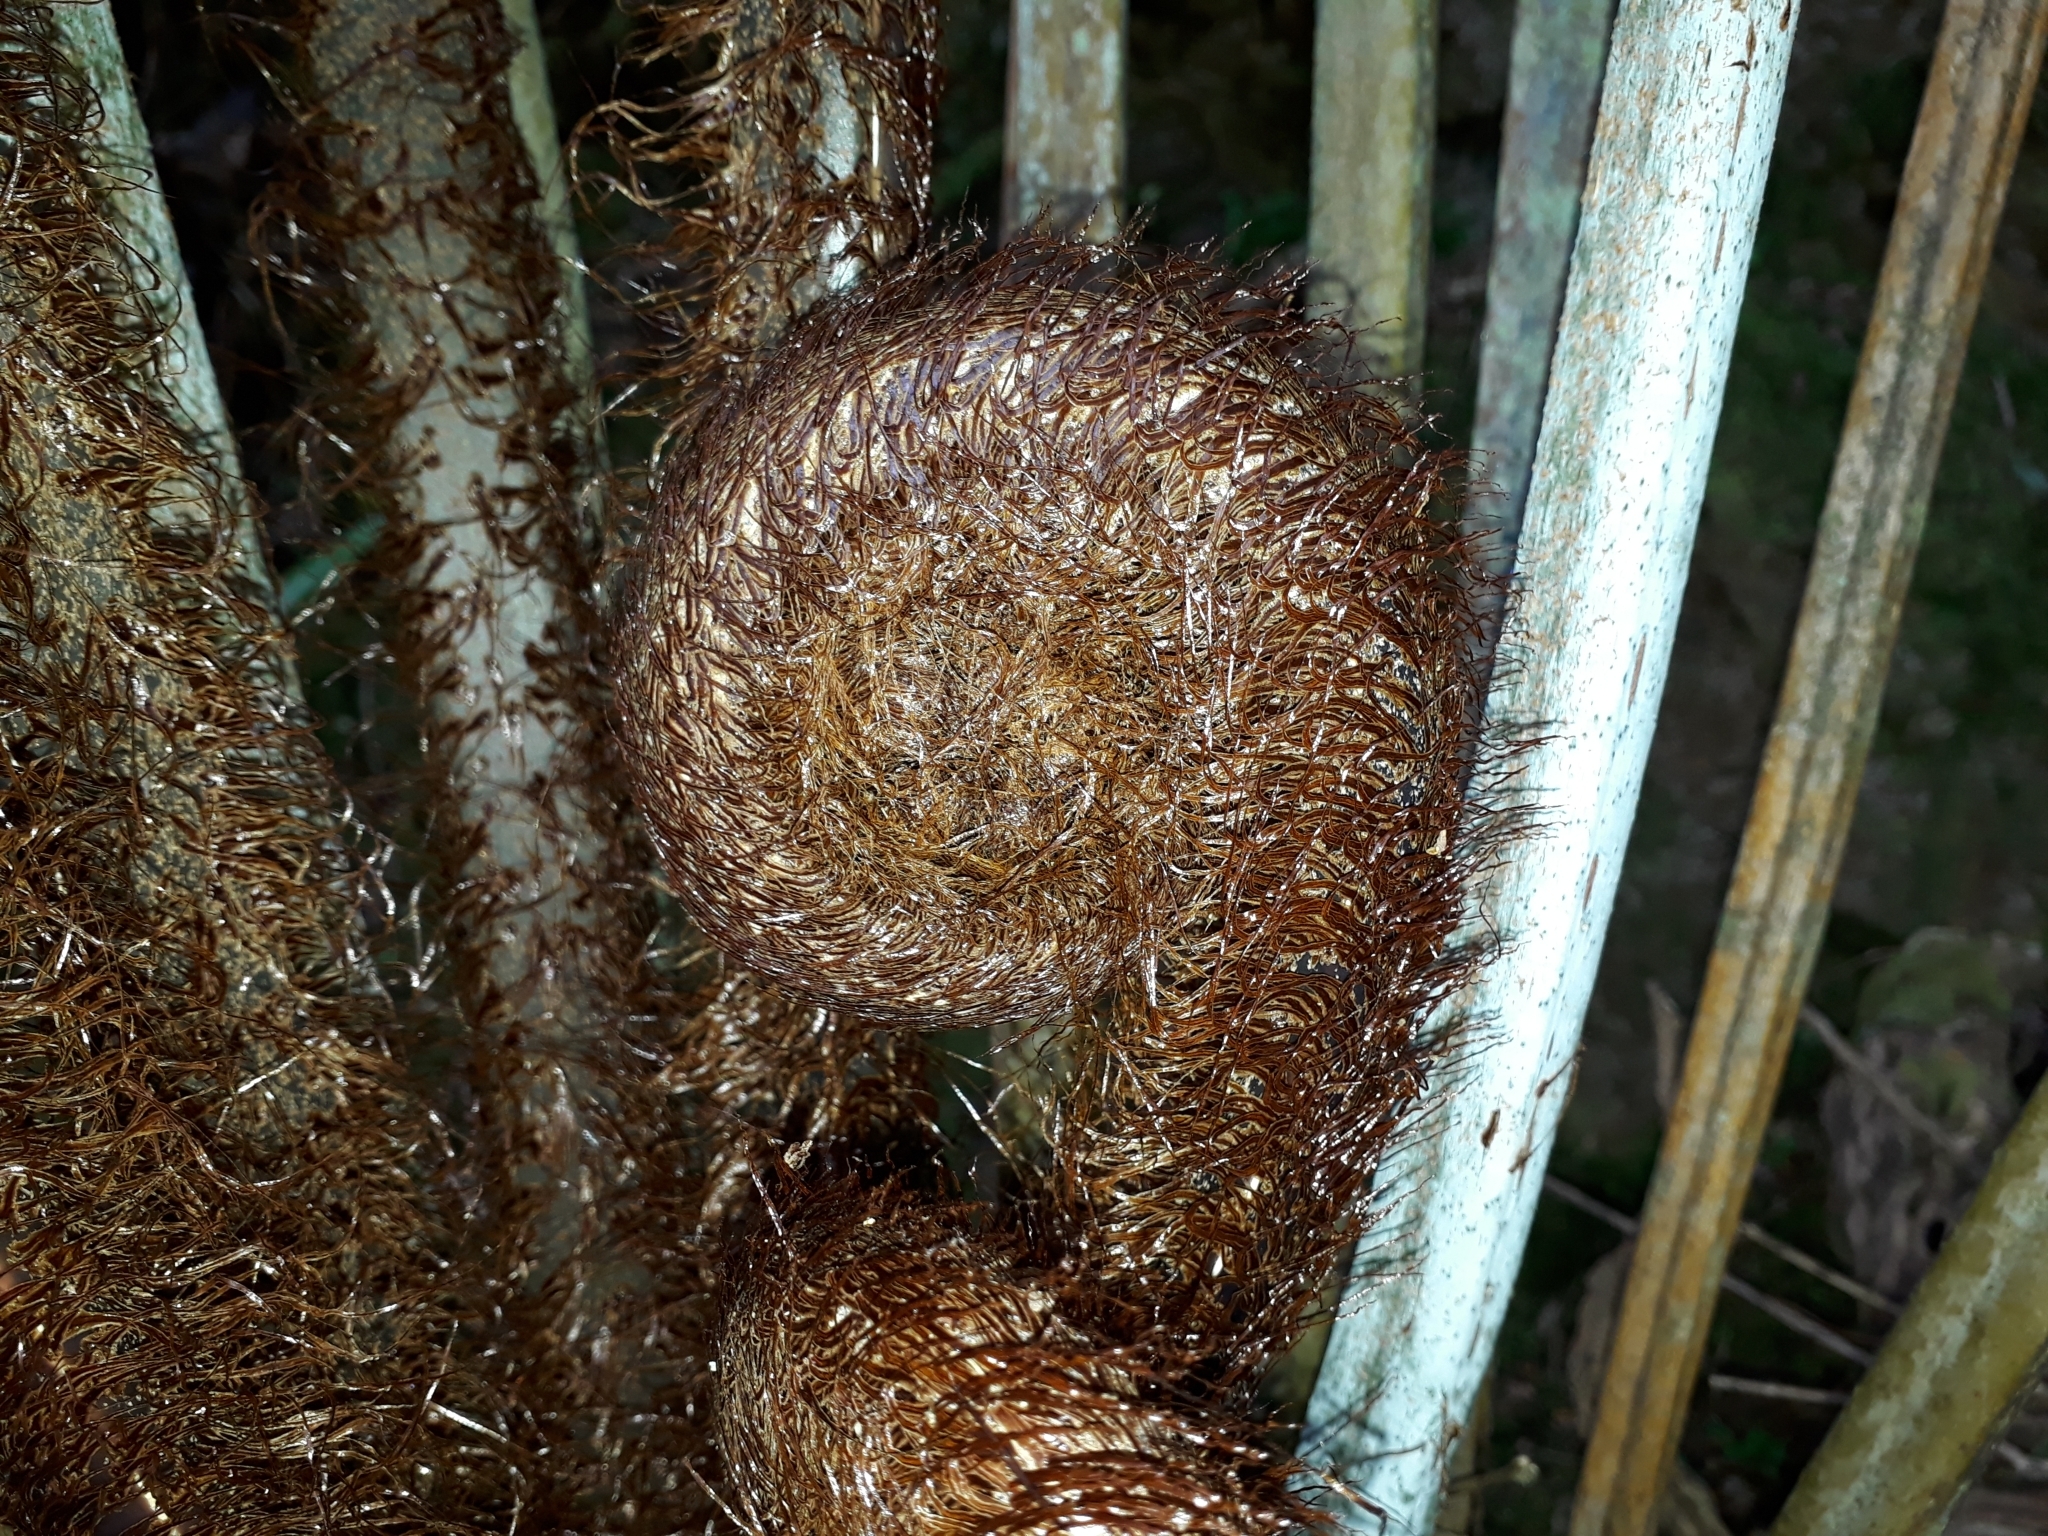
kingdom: Plantae
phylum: Tracheophyta
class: Polypodiopsida
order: Cyatheales
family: Cyatheaceae
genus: Alsophila
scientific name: Alsophila dealbata
